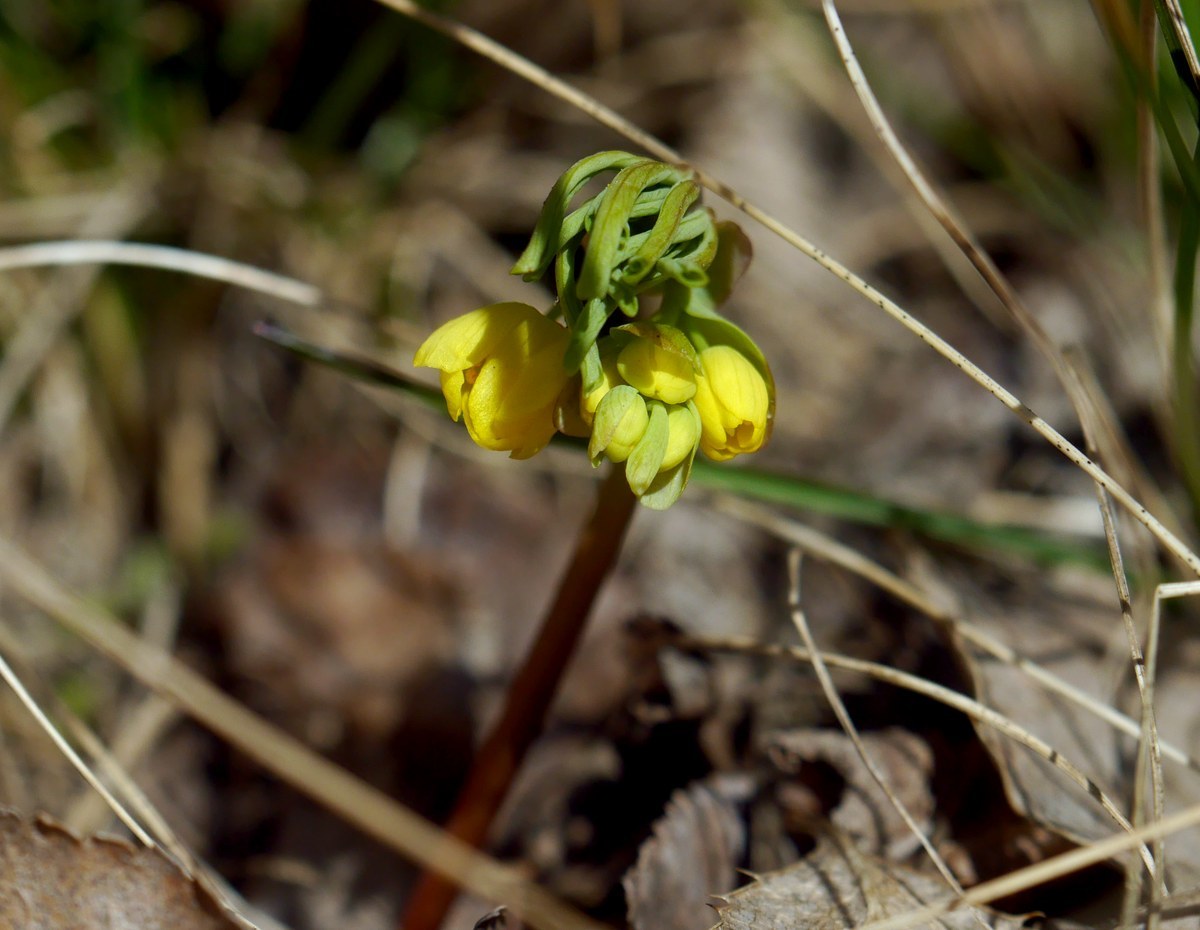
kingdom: Plantae
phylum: Tracheophyta
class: Magnoliopsida
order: Ranunculales
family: Berberidaceae
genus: Gymnospermium
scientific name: Gymnospermium odessanum
